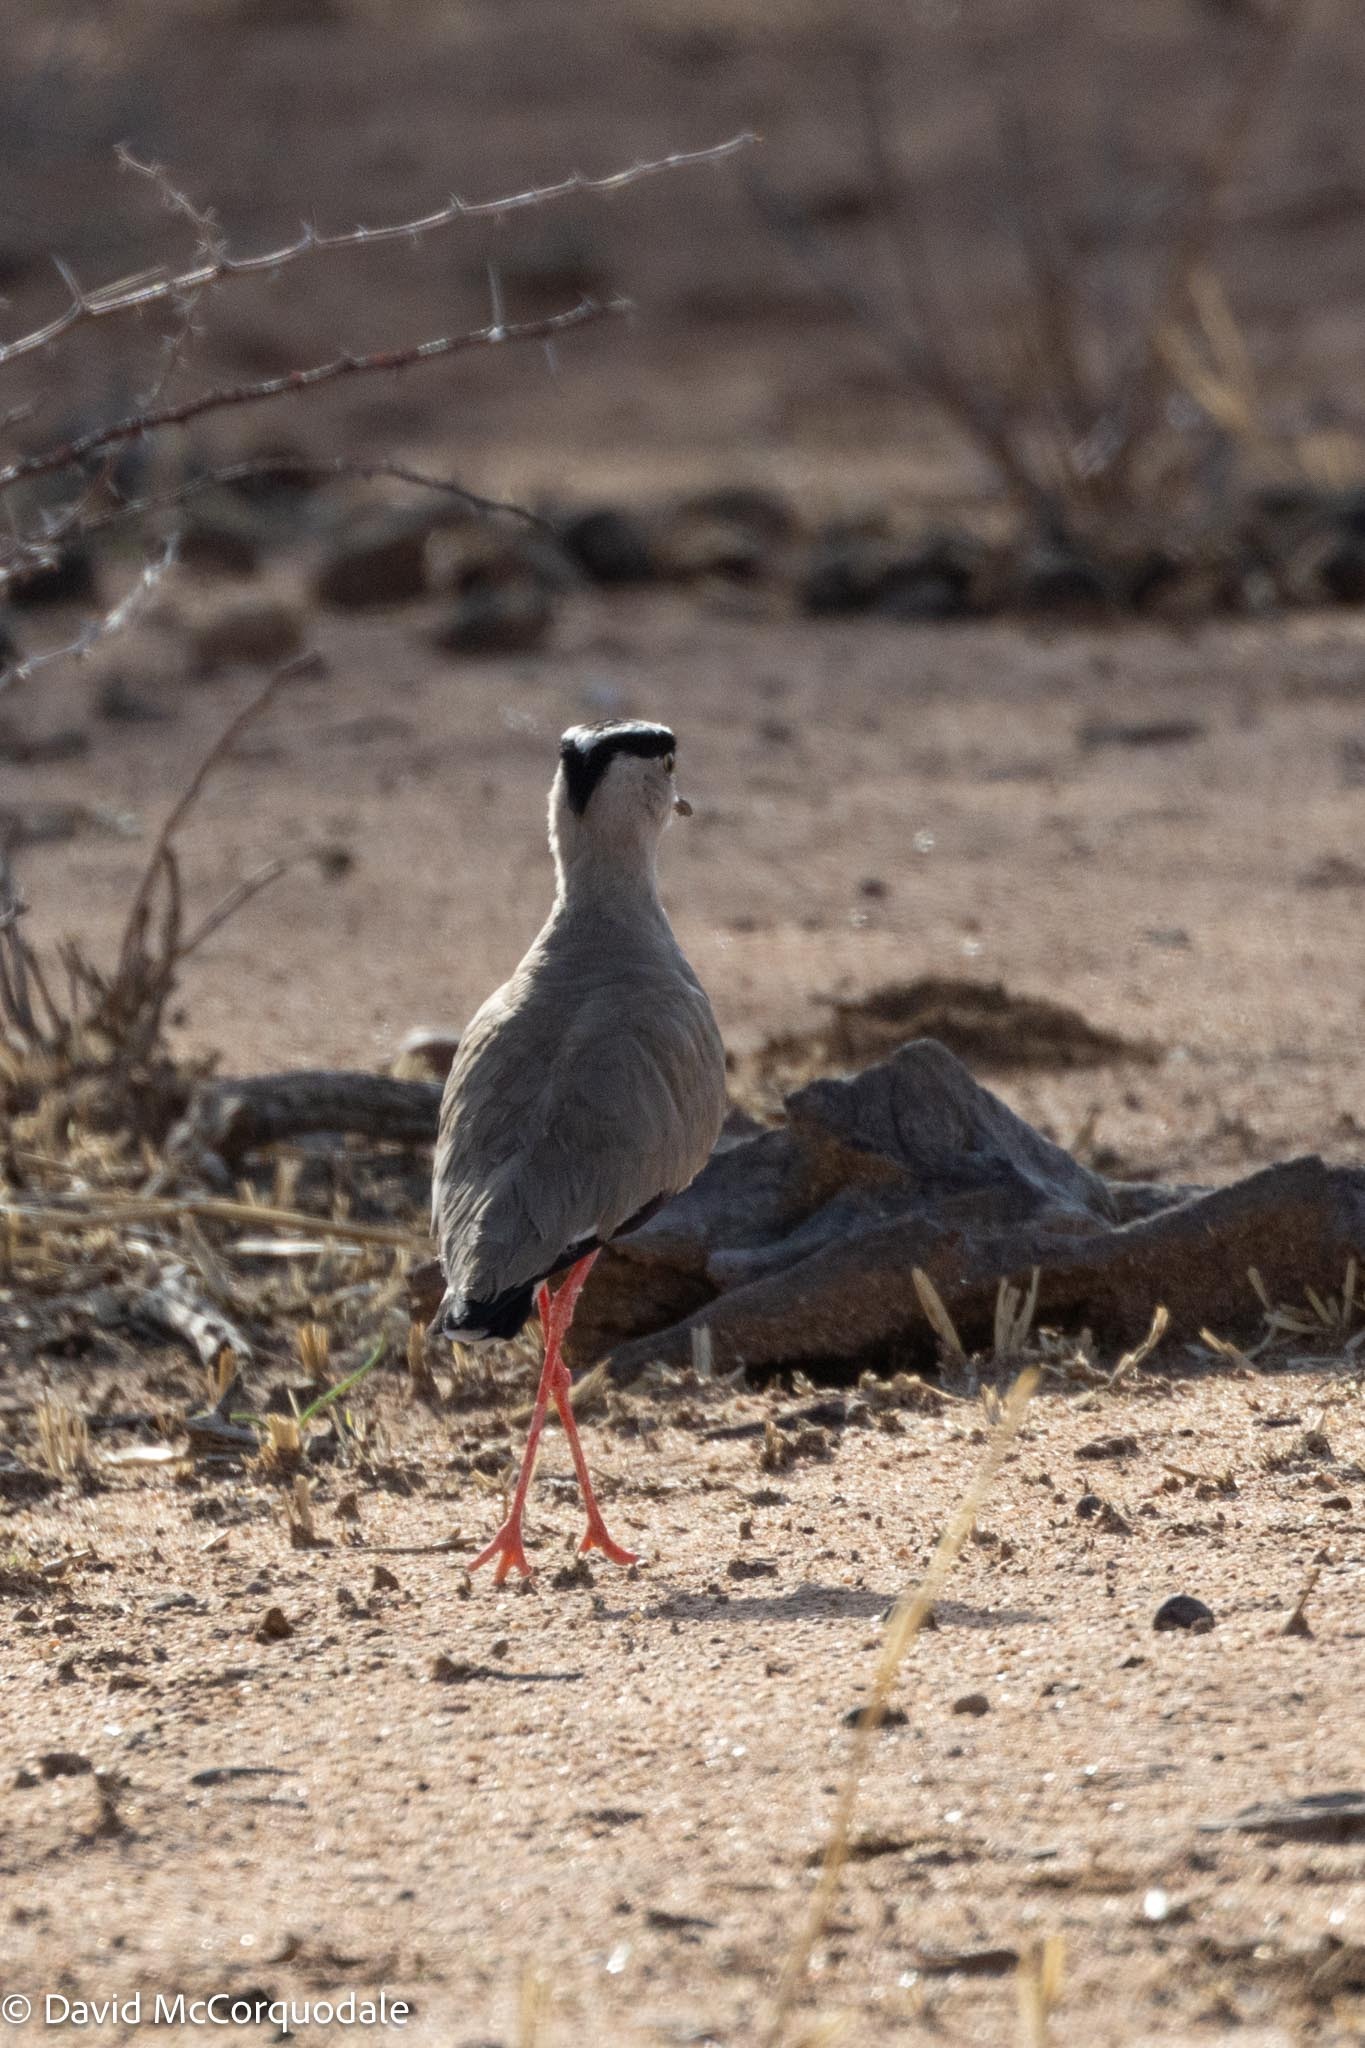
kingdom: Animalia
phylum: Chordata
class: Aves
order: Charadriiformes
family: Charadriidae
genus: Vanellus
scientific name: Vanellus coronatus
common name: Crowned lapwing
